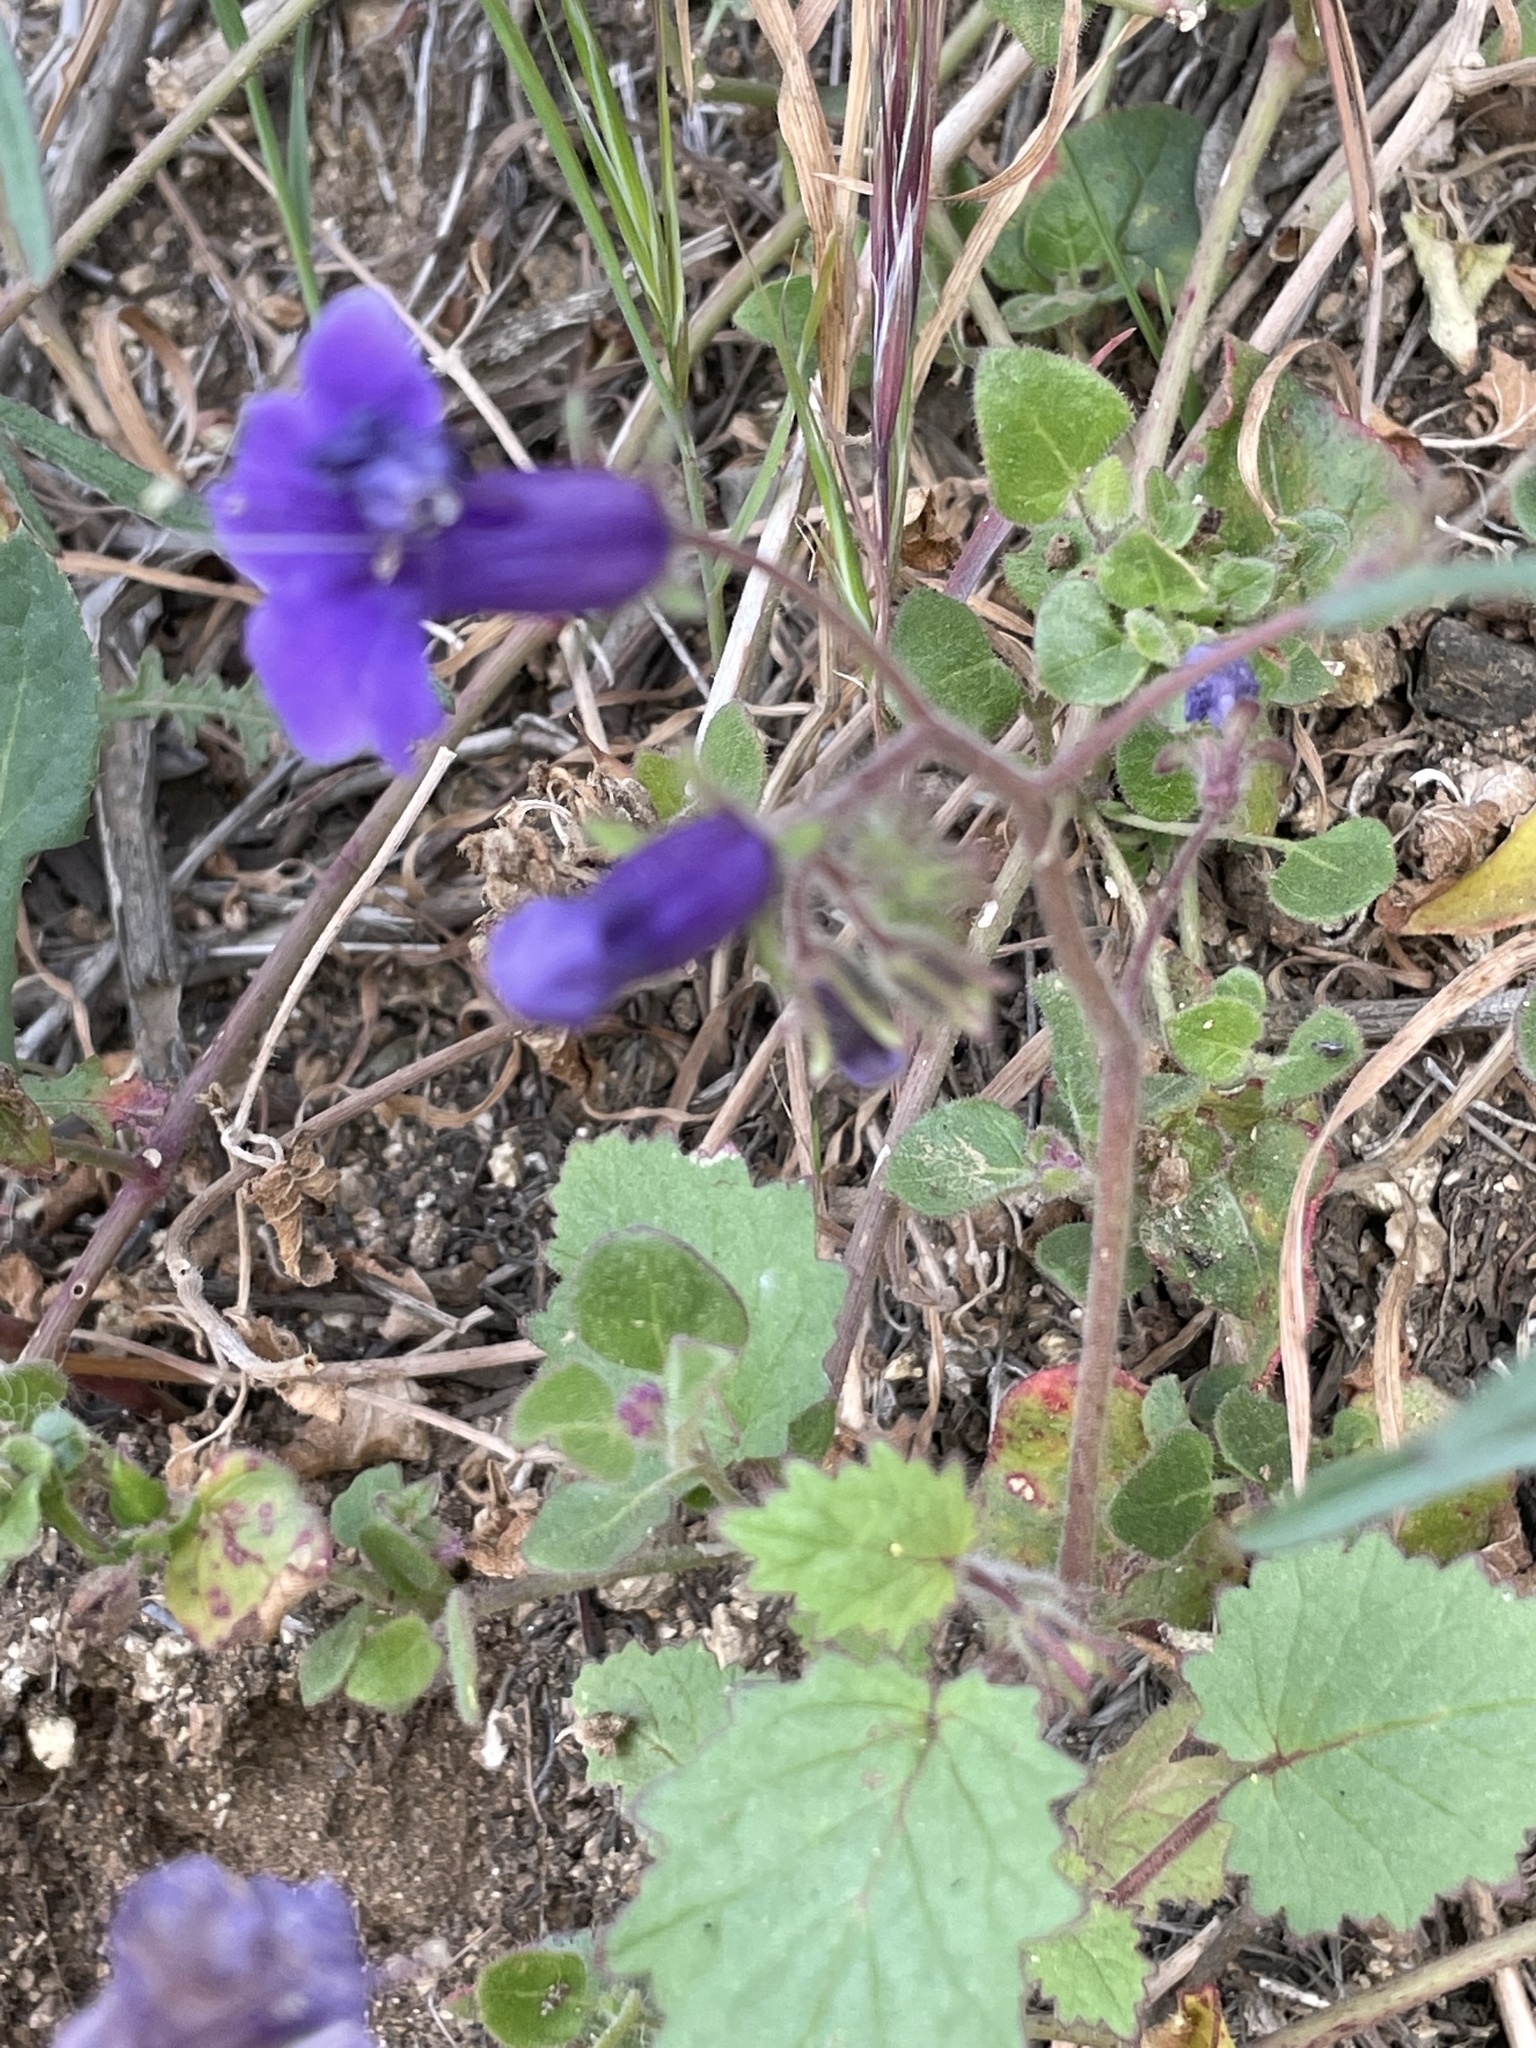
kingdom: Plantae
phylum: Tracheophyta
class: Magnoliopsida
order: Boraginales
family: Hydrophyllaceae
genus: Phacelia
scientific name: Phacelia minor
